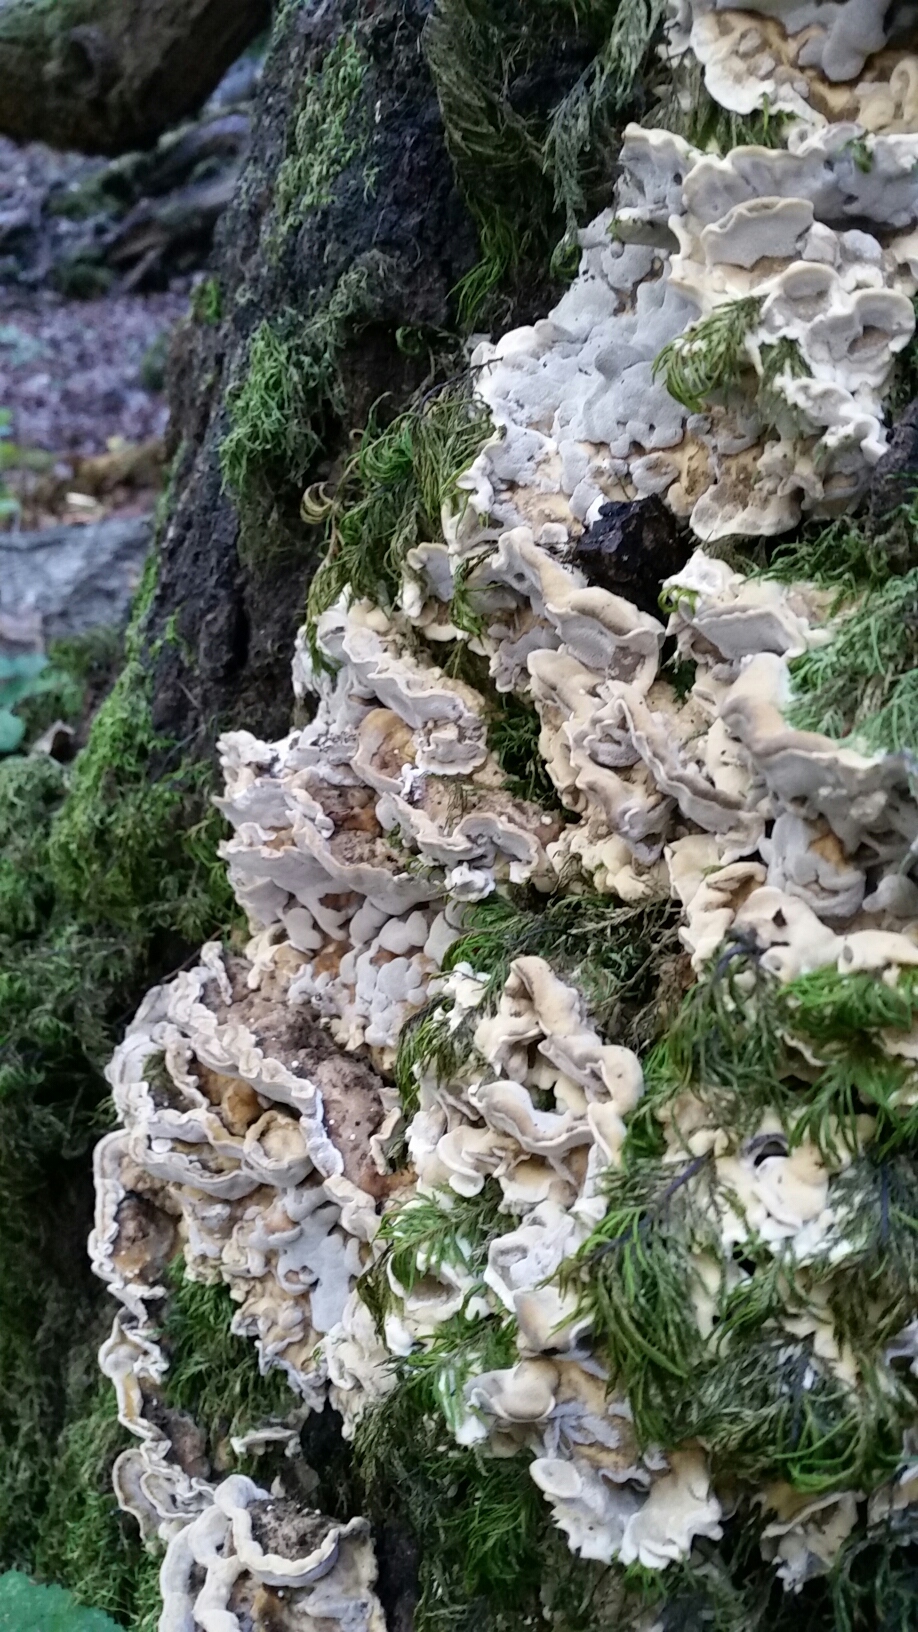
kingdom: Fungi
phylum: Basidiomycota
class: Agaricomycetes
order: Polyporales
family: Phanerochaetaceae
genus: Bjerkandera
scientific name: Bjerkandera adusta
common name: Smoky bracket
